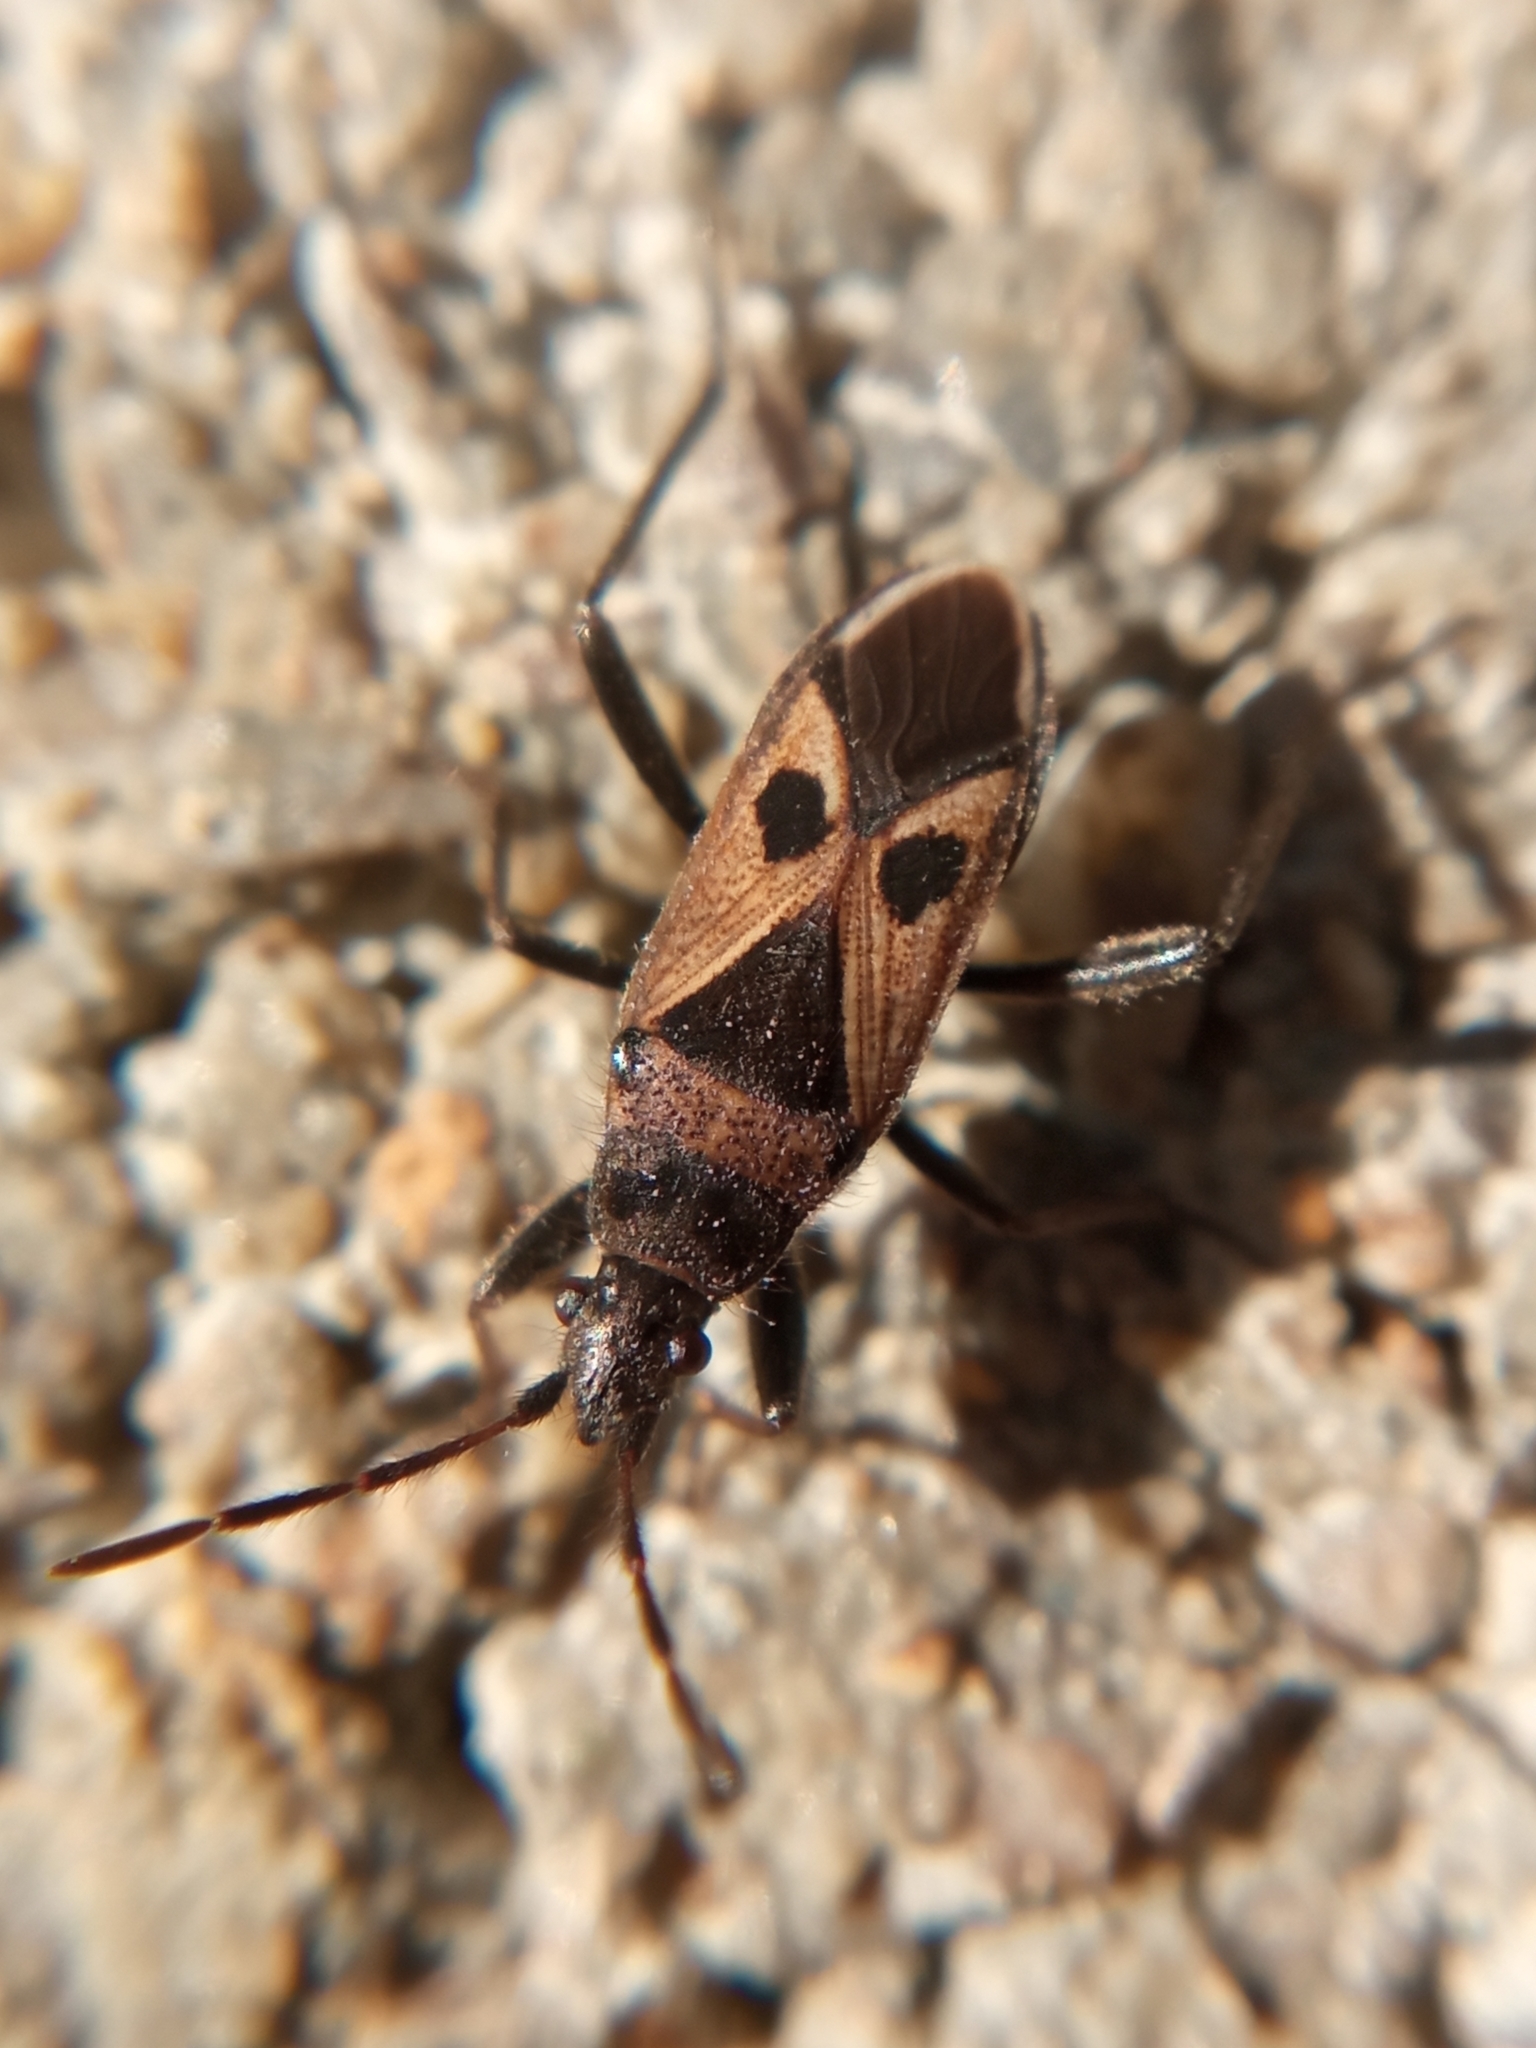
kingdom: Animalia
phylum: Arthropoda
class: Insecta
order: Hemiptera
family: Rhyparochromidae
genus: Lasiocoris
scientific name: Lasiocoris anomalus
